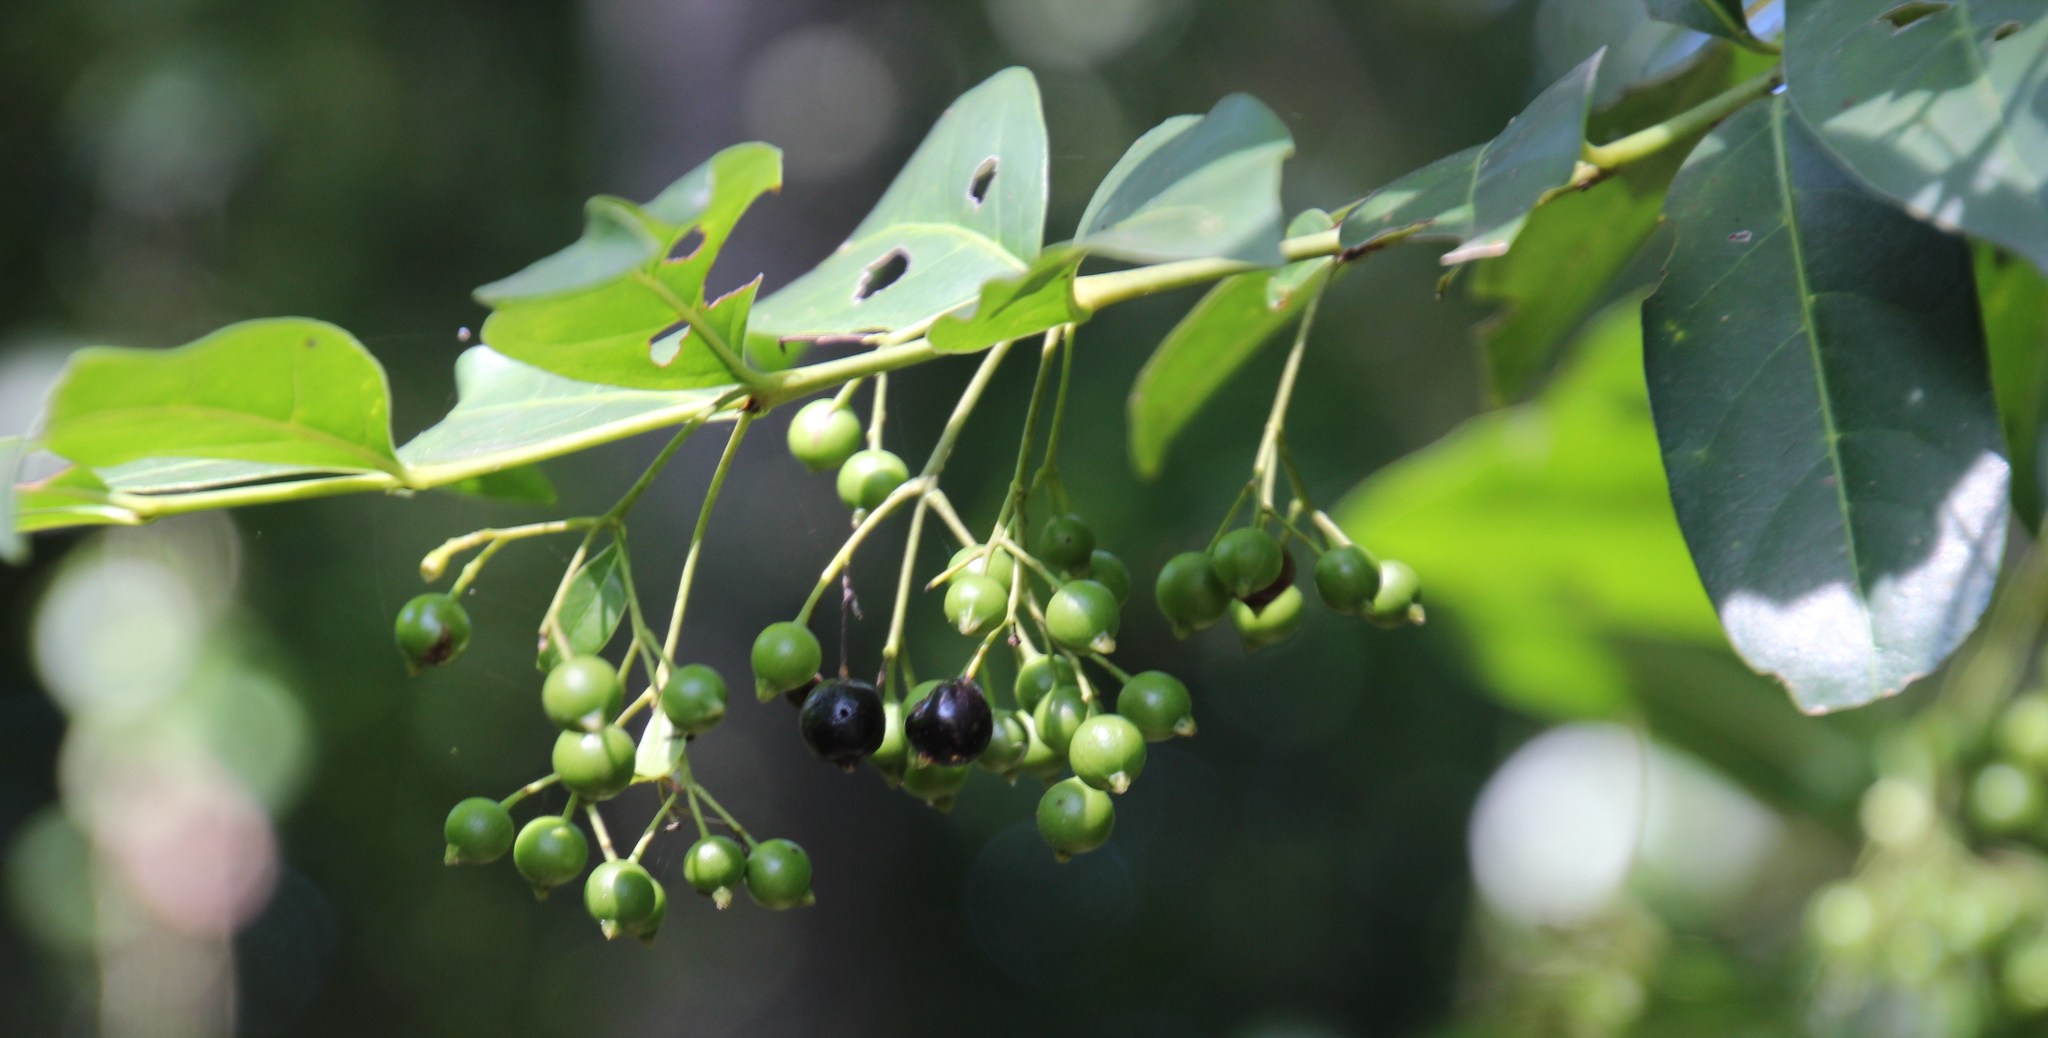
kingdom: Plantae
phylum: Tracheophyta
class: Magnoliopsida
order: Gentianales
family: Rubiaceae
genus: Kraussia
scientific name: Kraussia floribunda
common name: Rhino-coffee
